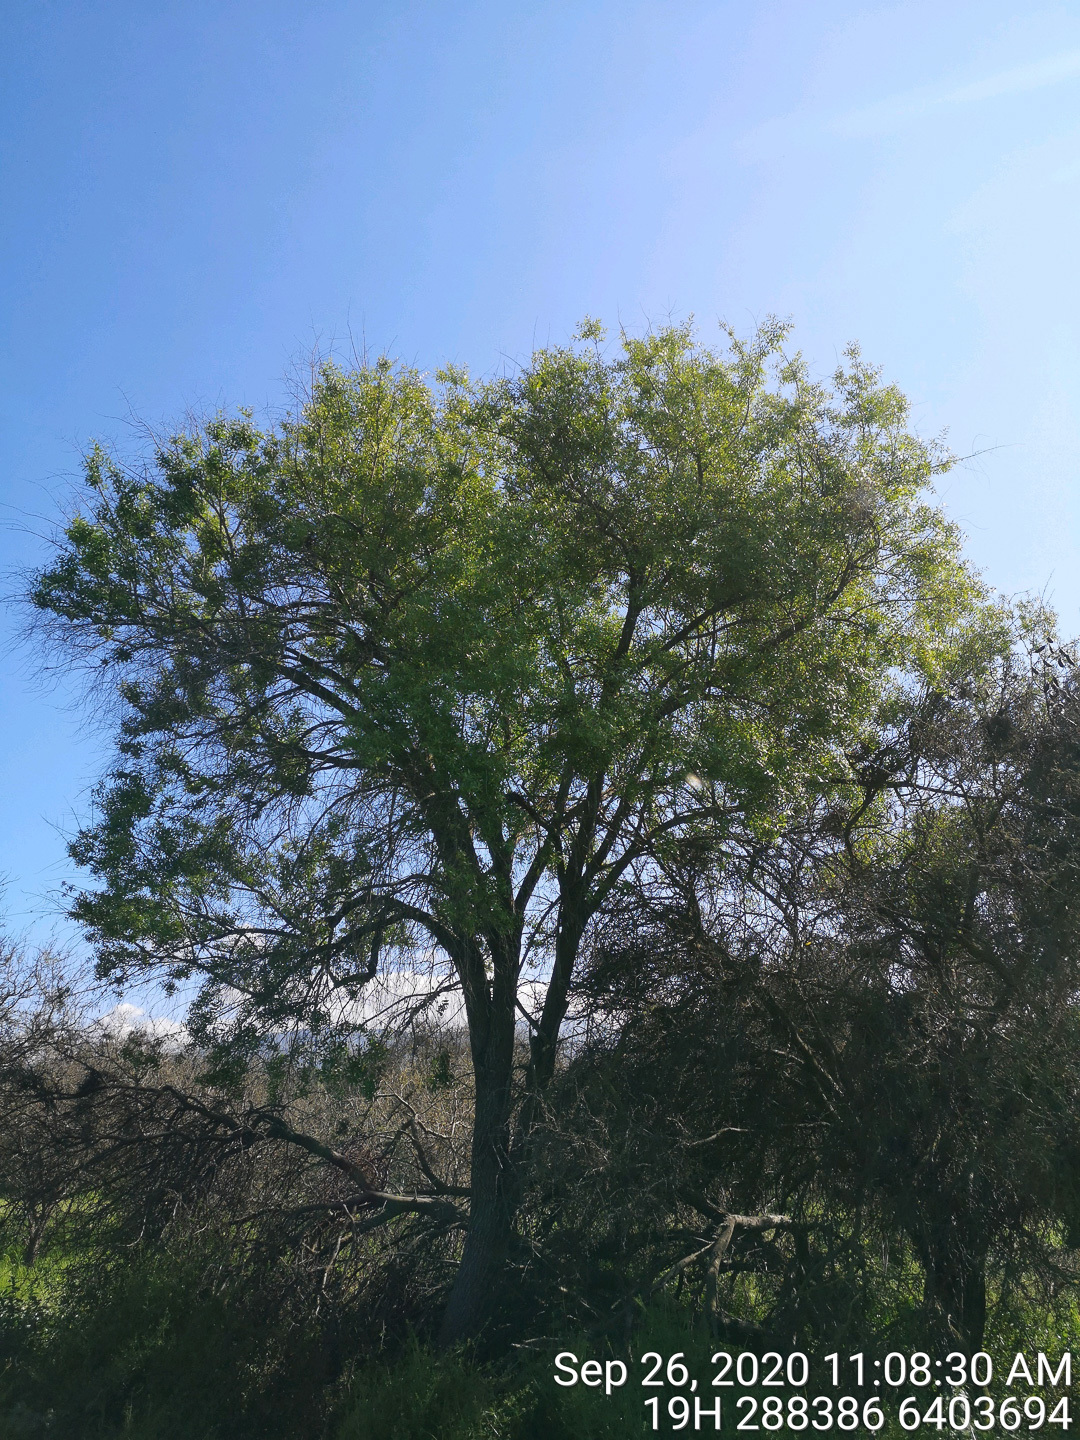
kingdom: Plantae
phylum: Tracheophyta
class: Magnoliopsida
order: Celastrales
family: Celastraceae
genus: Maytenus
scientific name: Maytenus boaria
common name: Mayten
